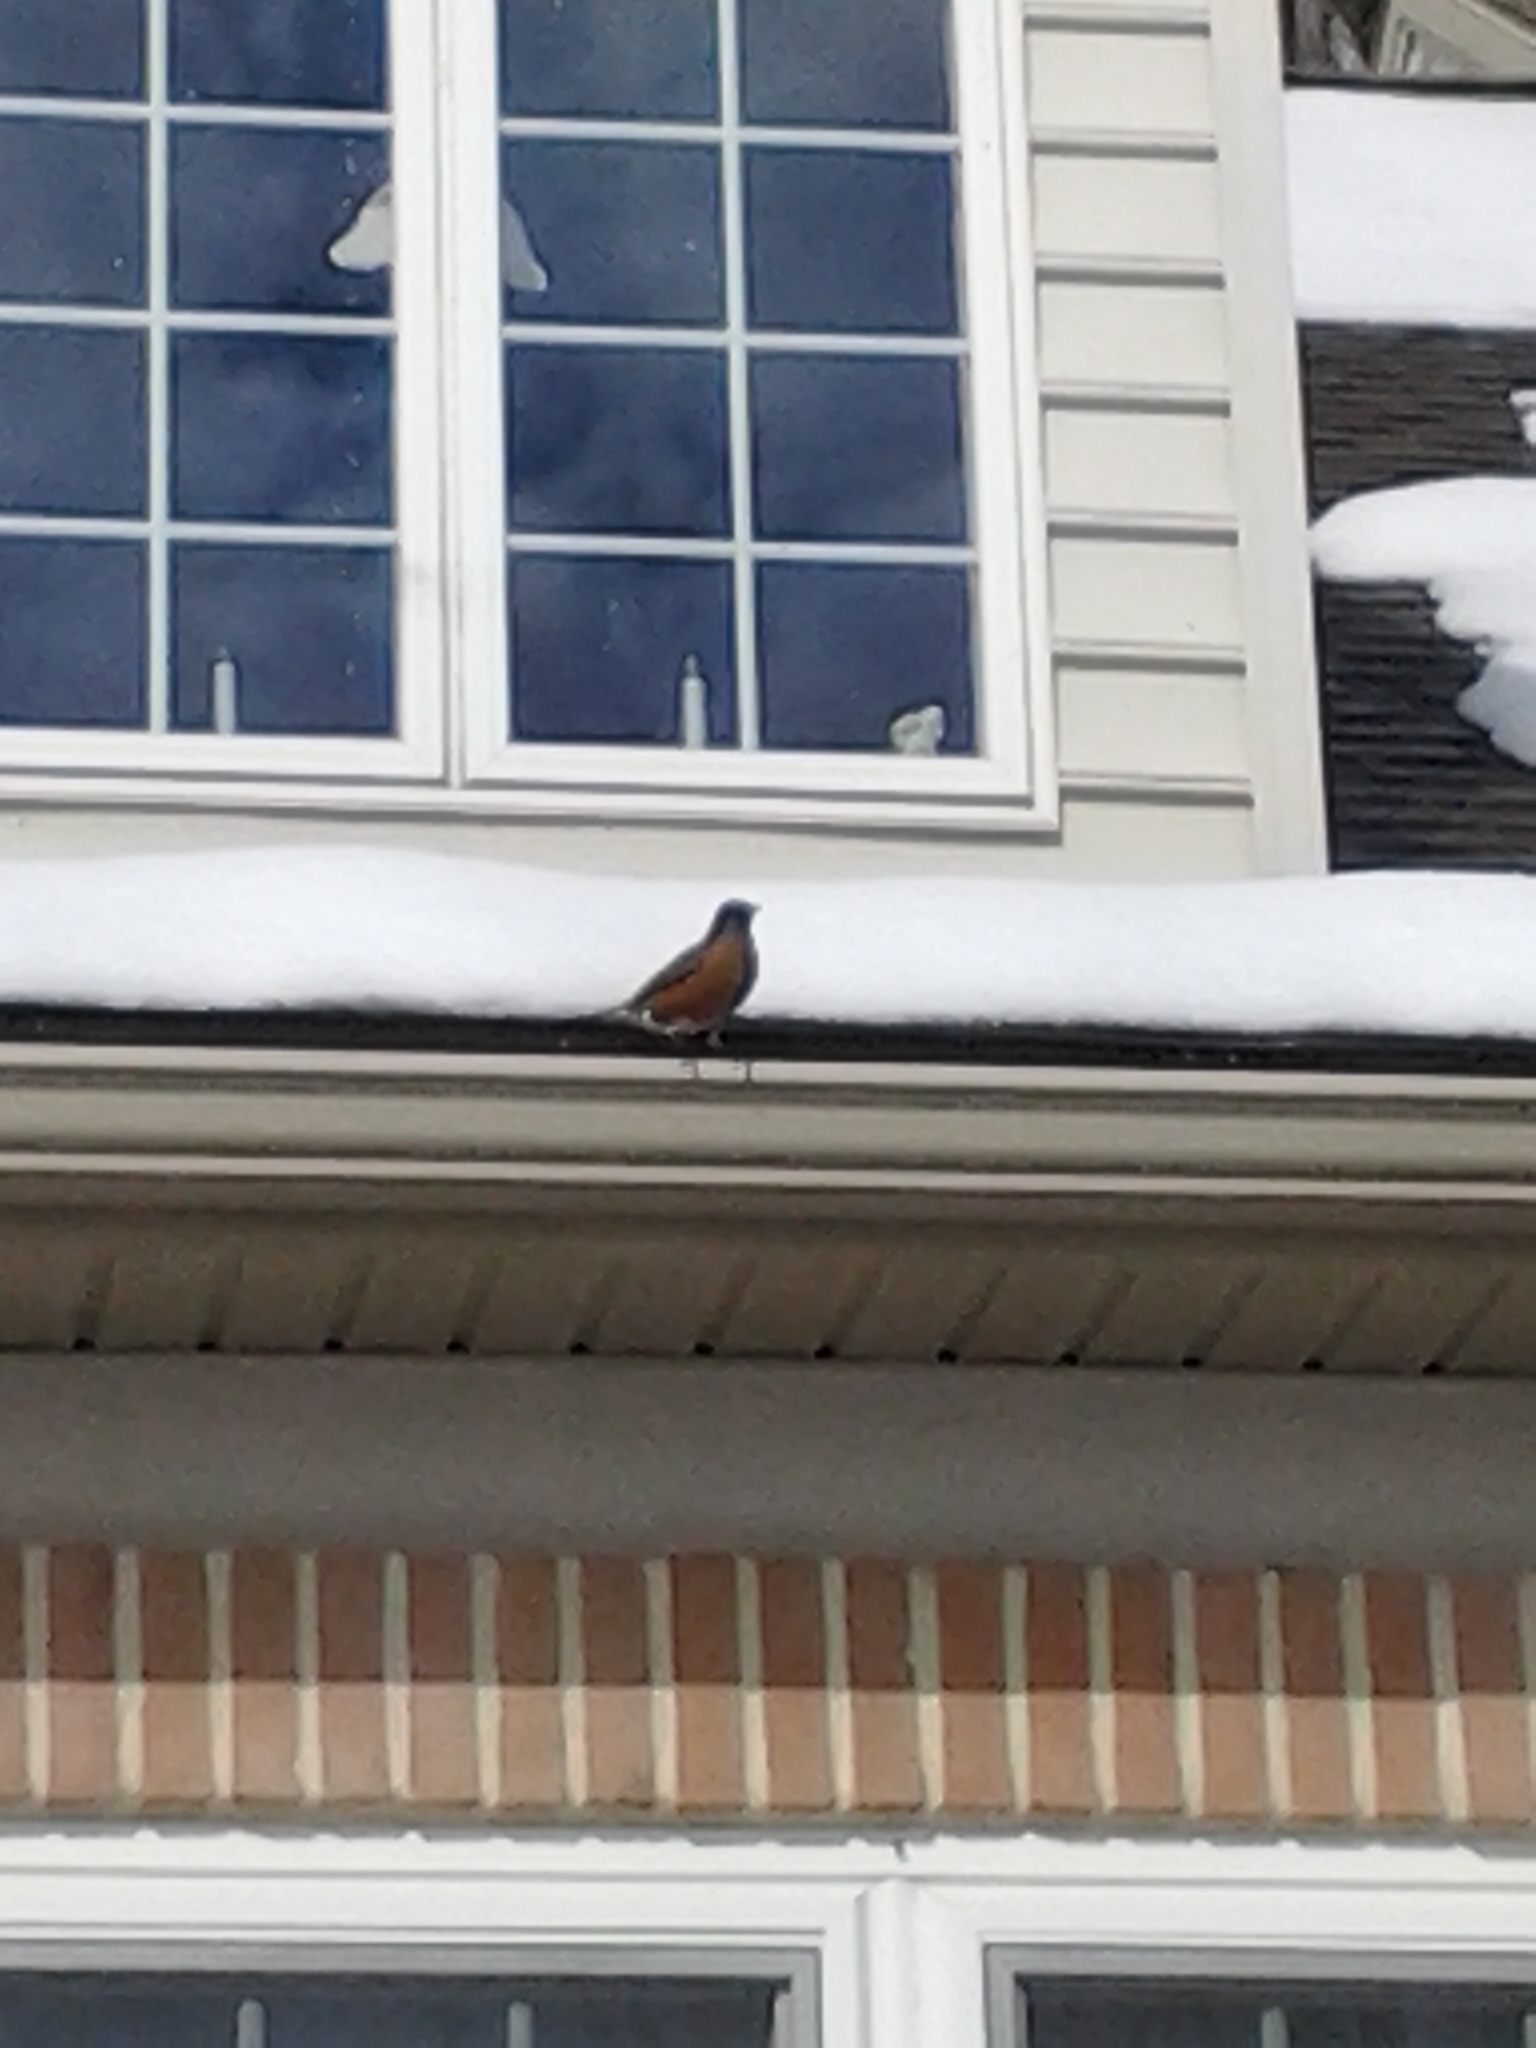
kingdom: Animalia
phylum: Chordata
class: Aves
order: Passeriformes
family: Turdidae
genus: Turdus
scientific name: Turdus migratorius
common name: American robin
